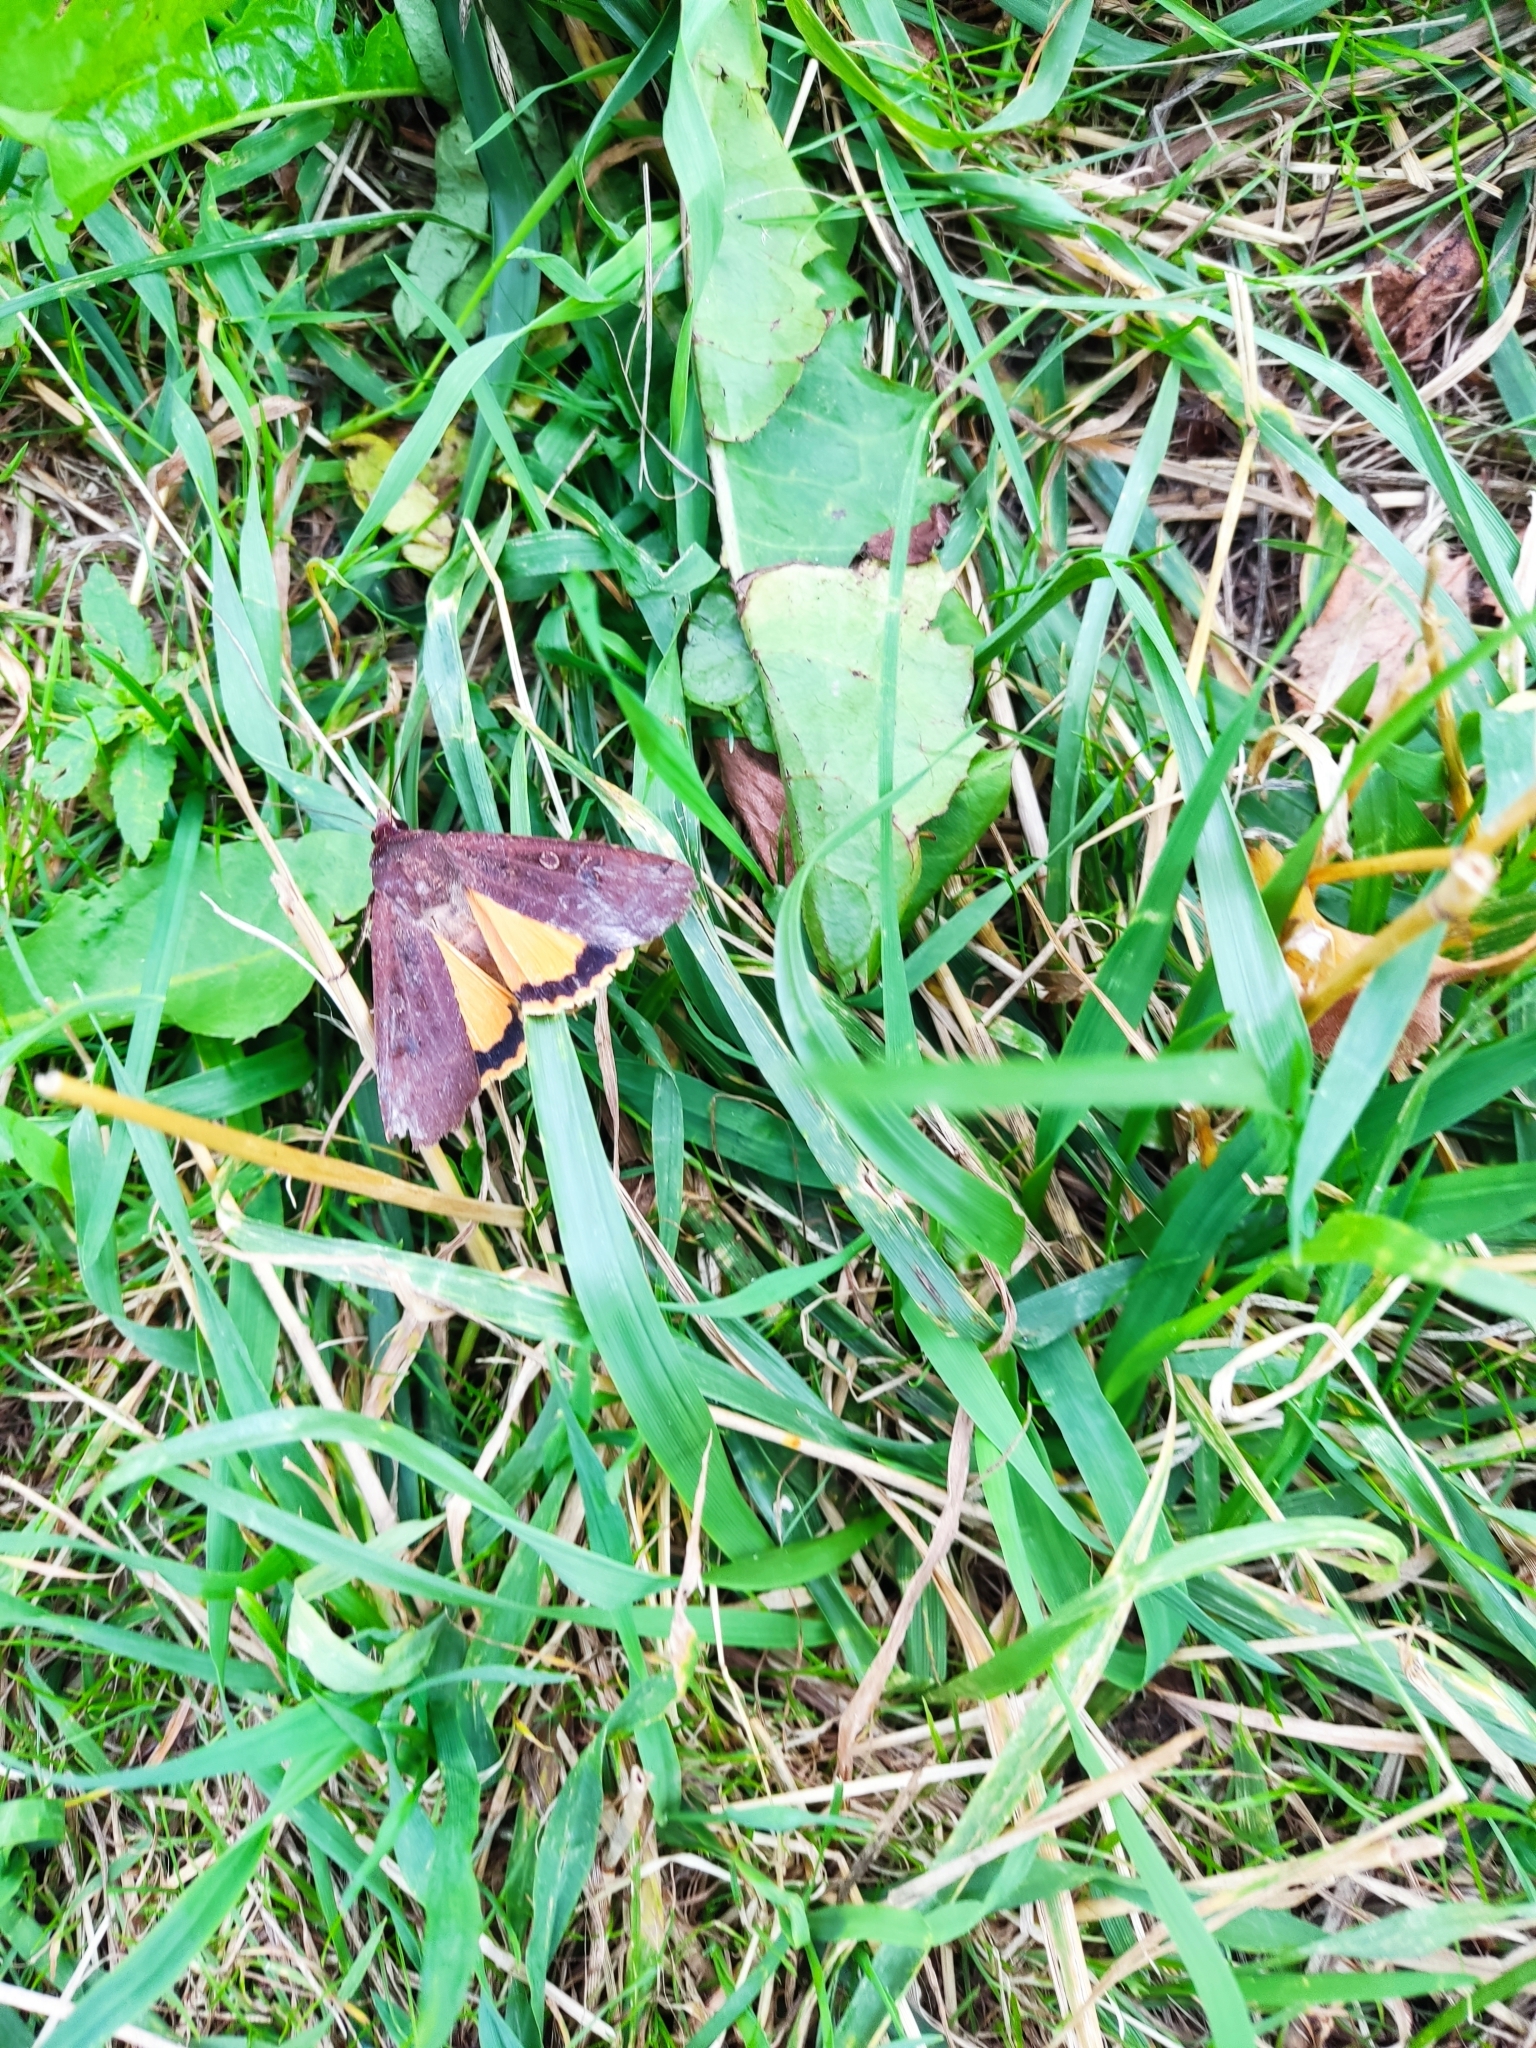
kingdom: Animalia
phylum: Arthropoda
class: Insecta
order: Lepidoptera
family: Noctuidae
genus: Noctua
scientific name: Noctua pronuba
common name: Large yellow underwing
